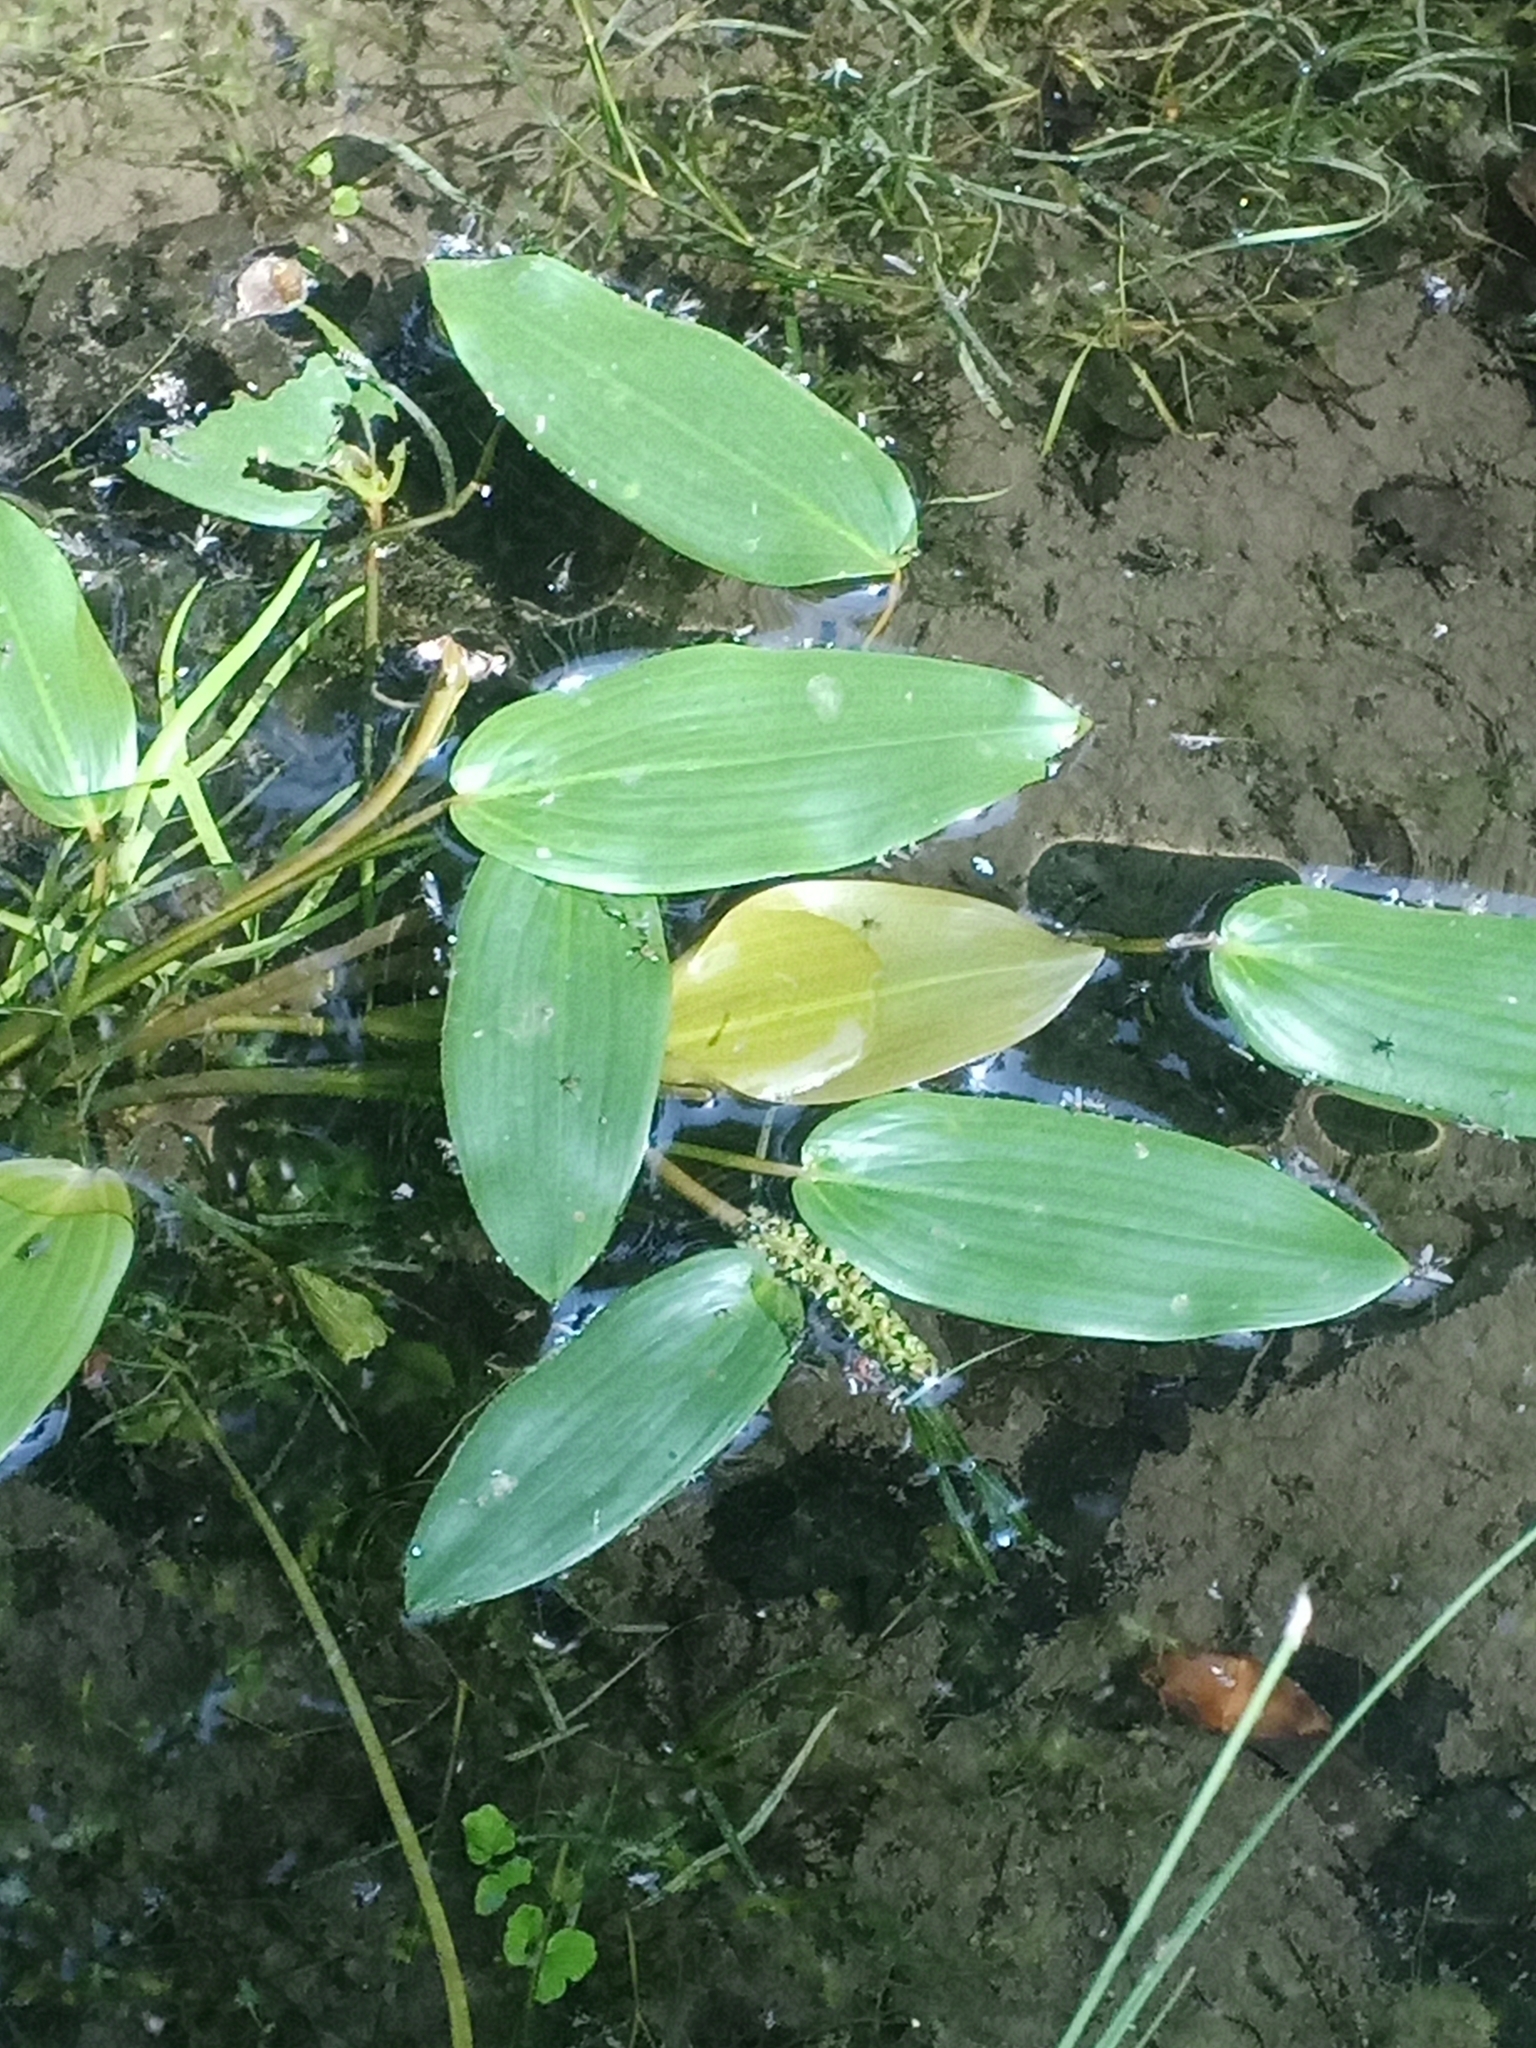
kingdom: Plantae
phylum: Tracheophyta
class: Liliopsida
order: Alismatales
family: Potamogetonaceae
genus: Potamogeton
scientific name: Potamogeton natans
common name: Broad-leaved pondweed
